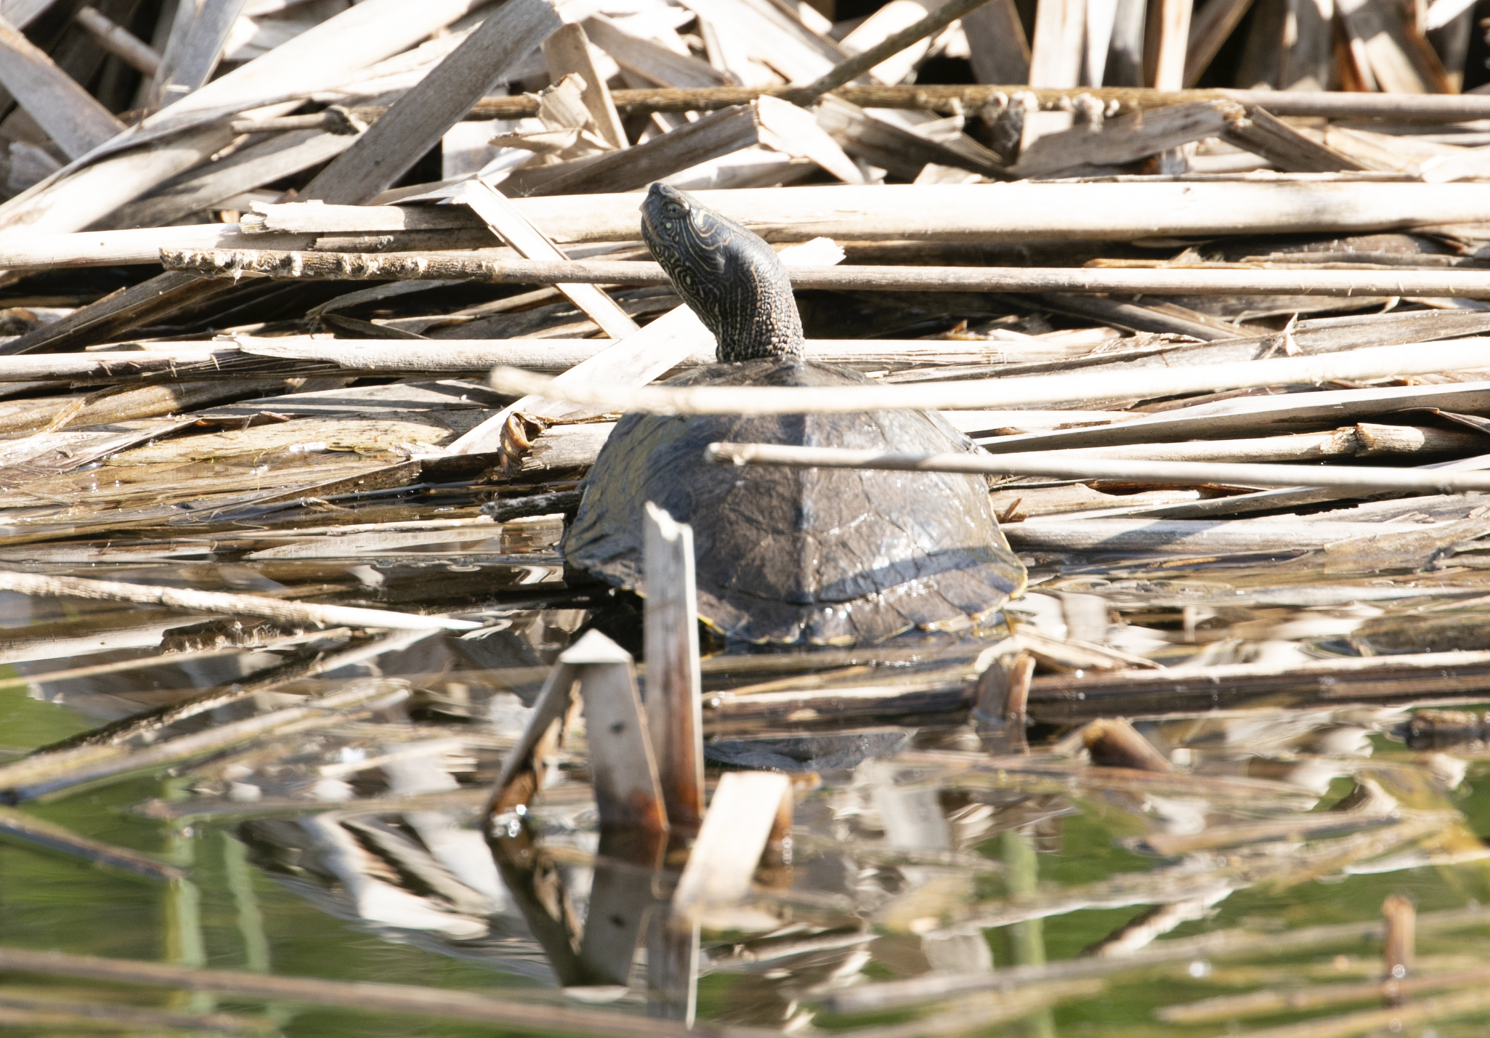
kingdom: Animalia
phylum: Chordata
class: Testudines
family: Emydidae
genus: Graptemys
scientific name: Graptemys pseudogeographica
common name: False map turtle
